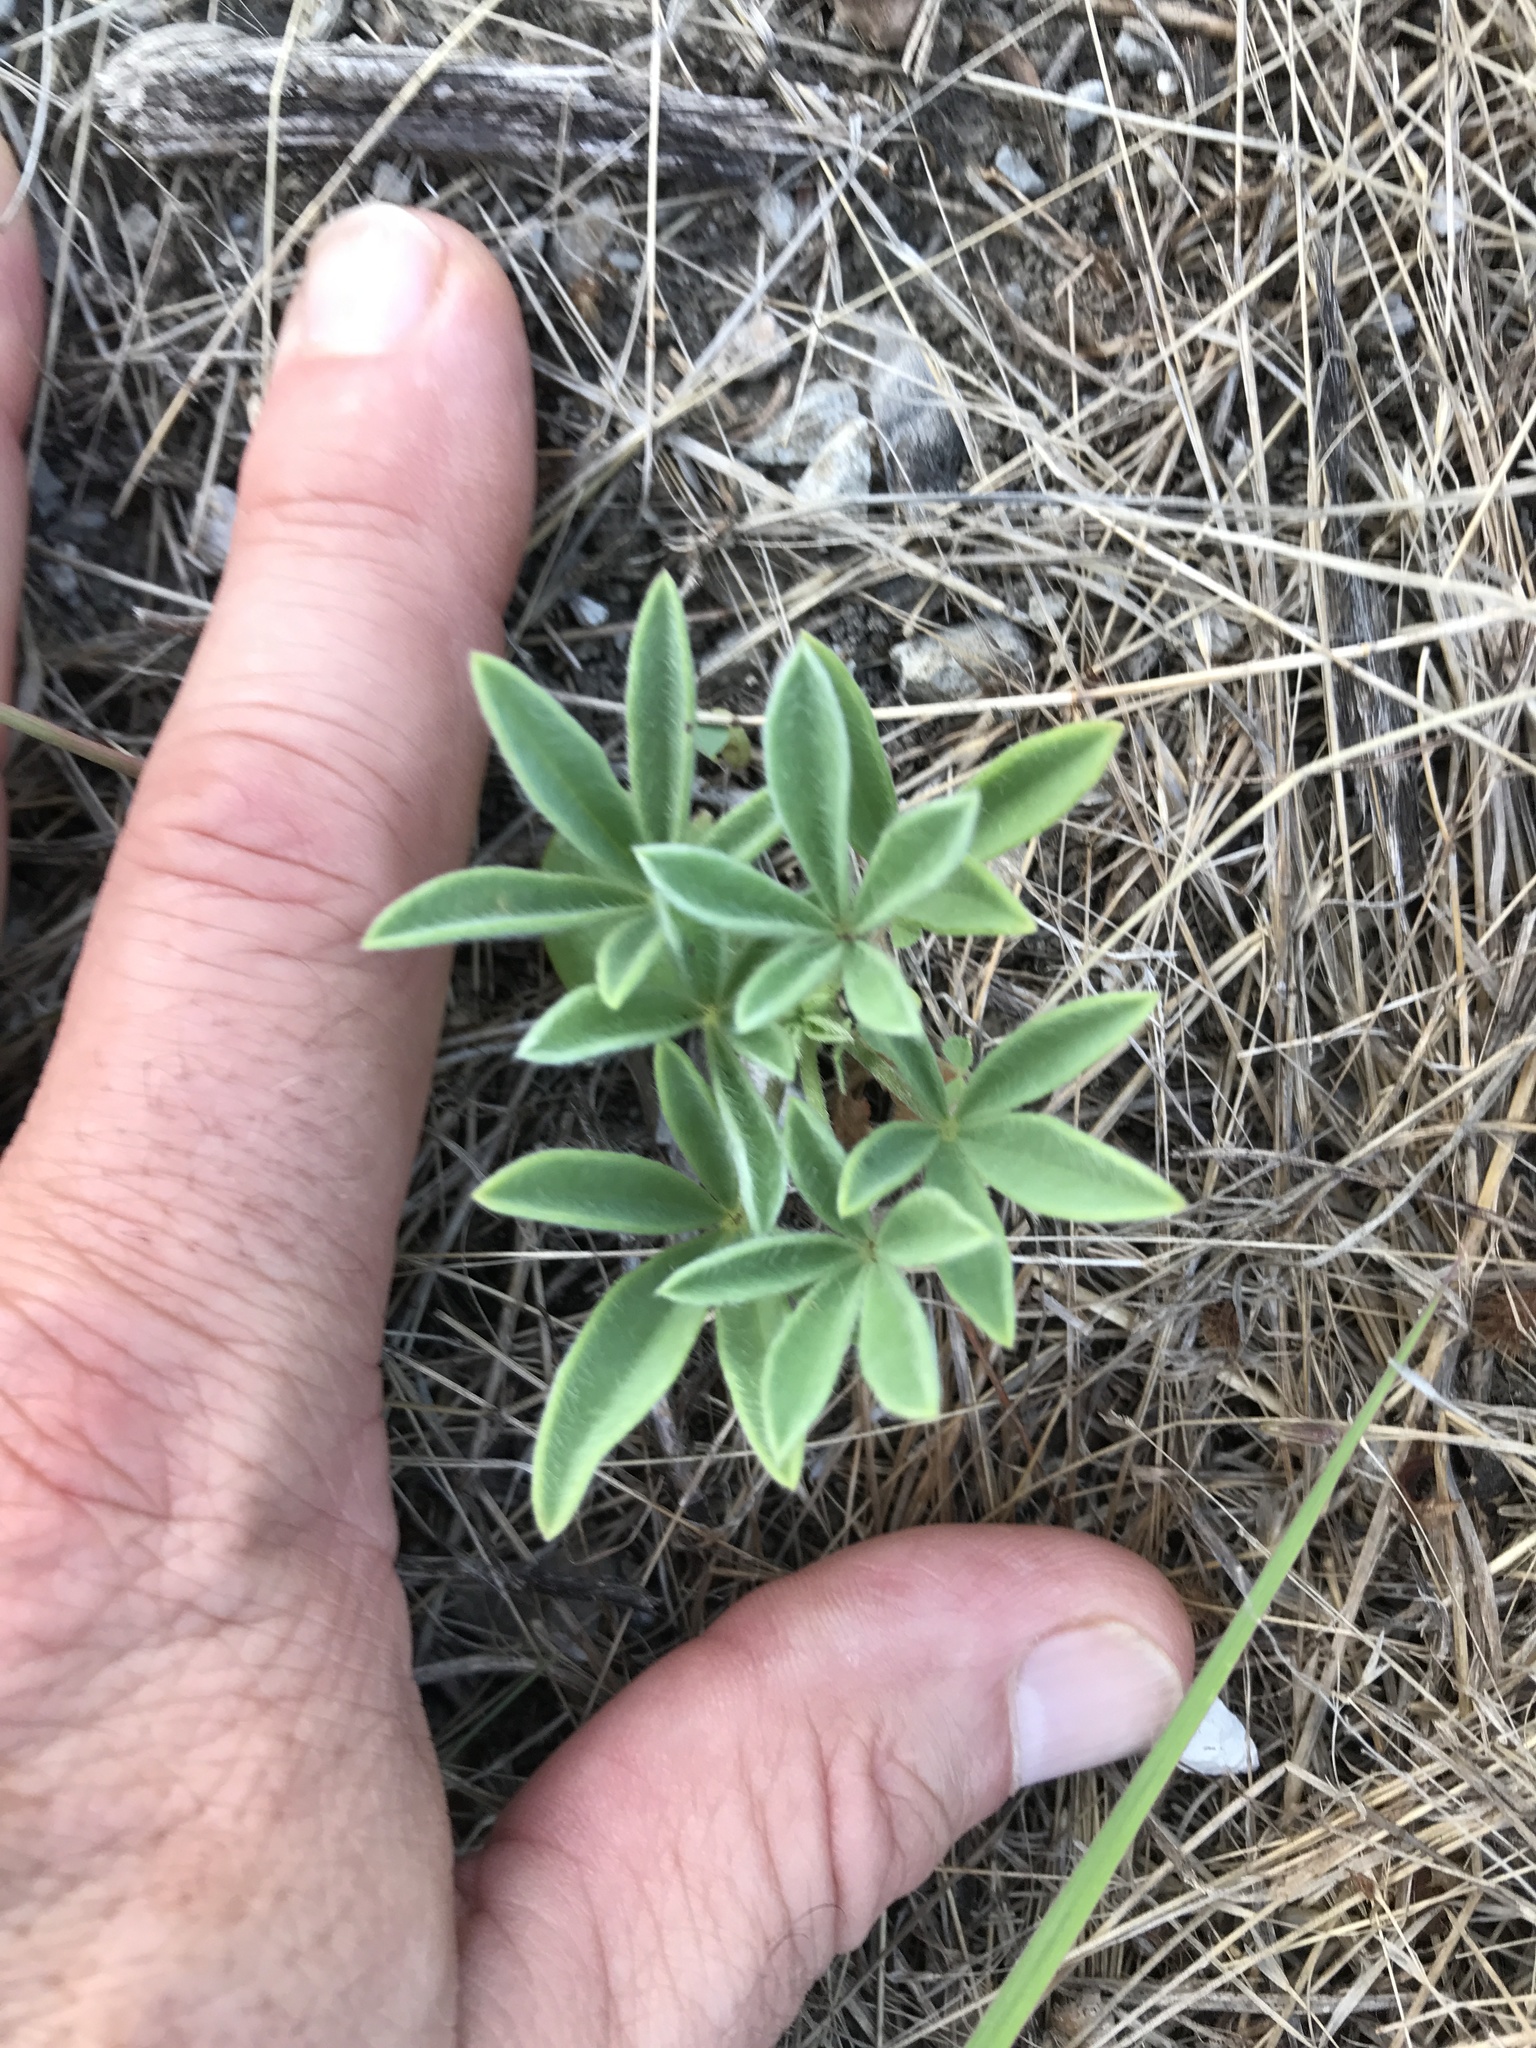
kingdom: Plantae
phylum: Tracheophyta
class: Magnoliopsida
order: Fabales
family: Fabaceae
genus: Lupinus
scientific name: Lupinus texensis
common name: Texas bluebonnet
